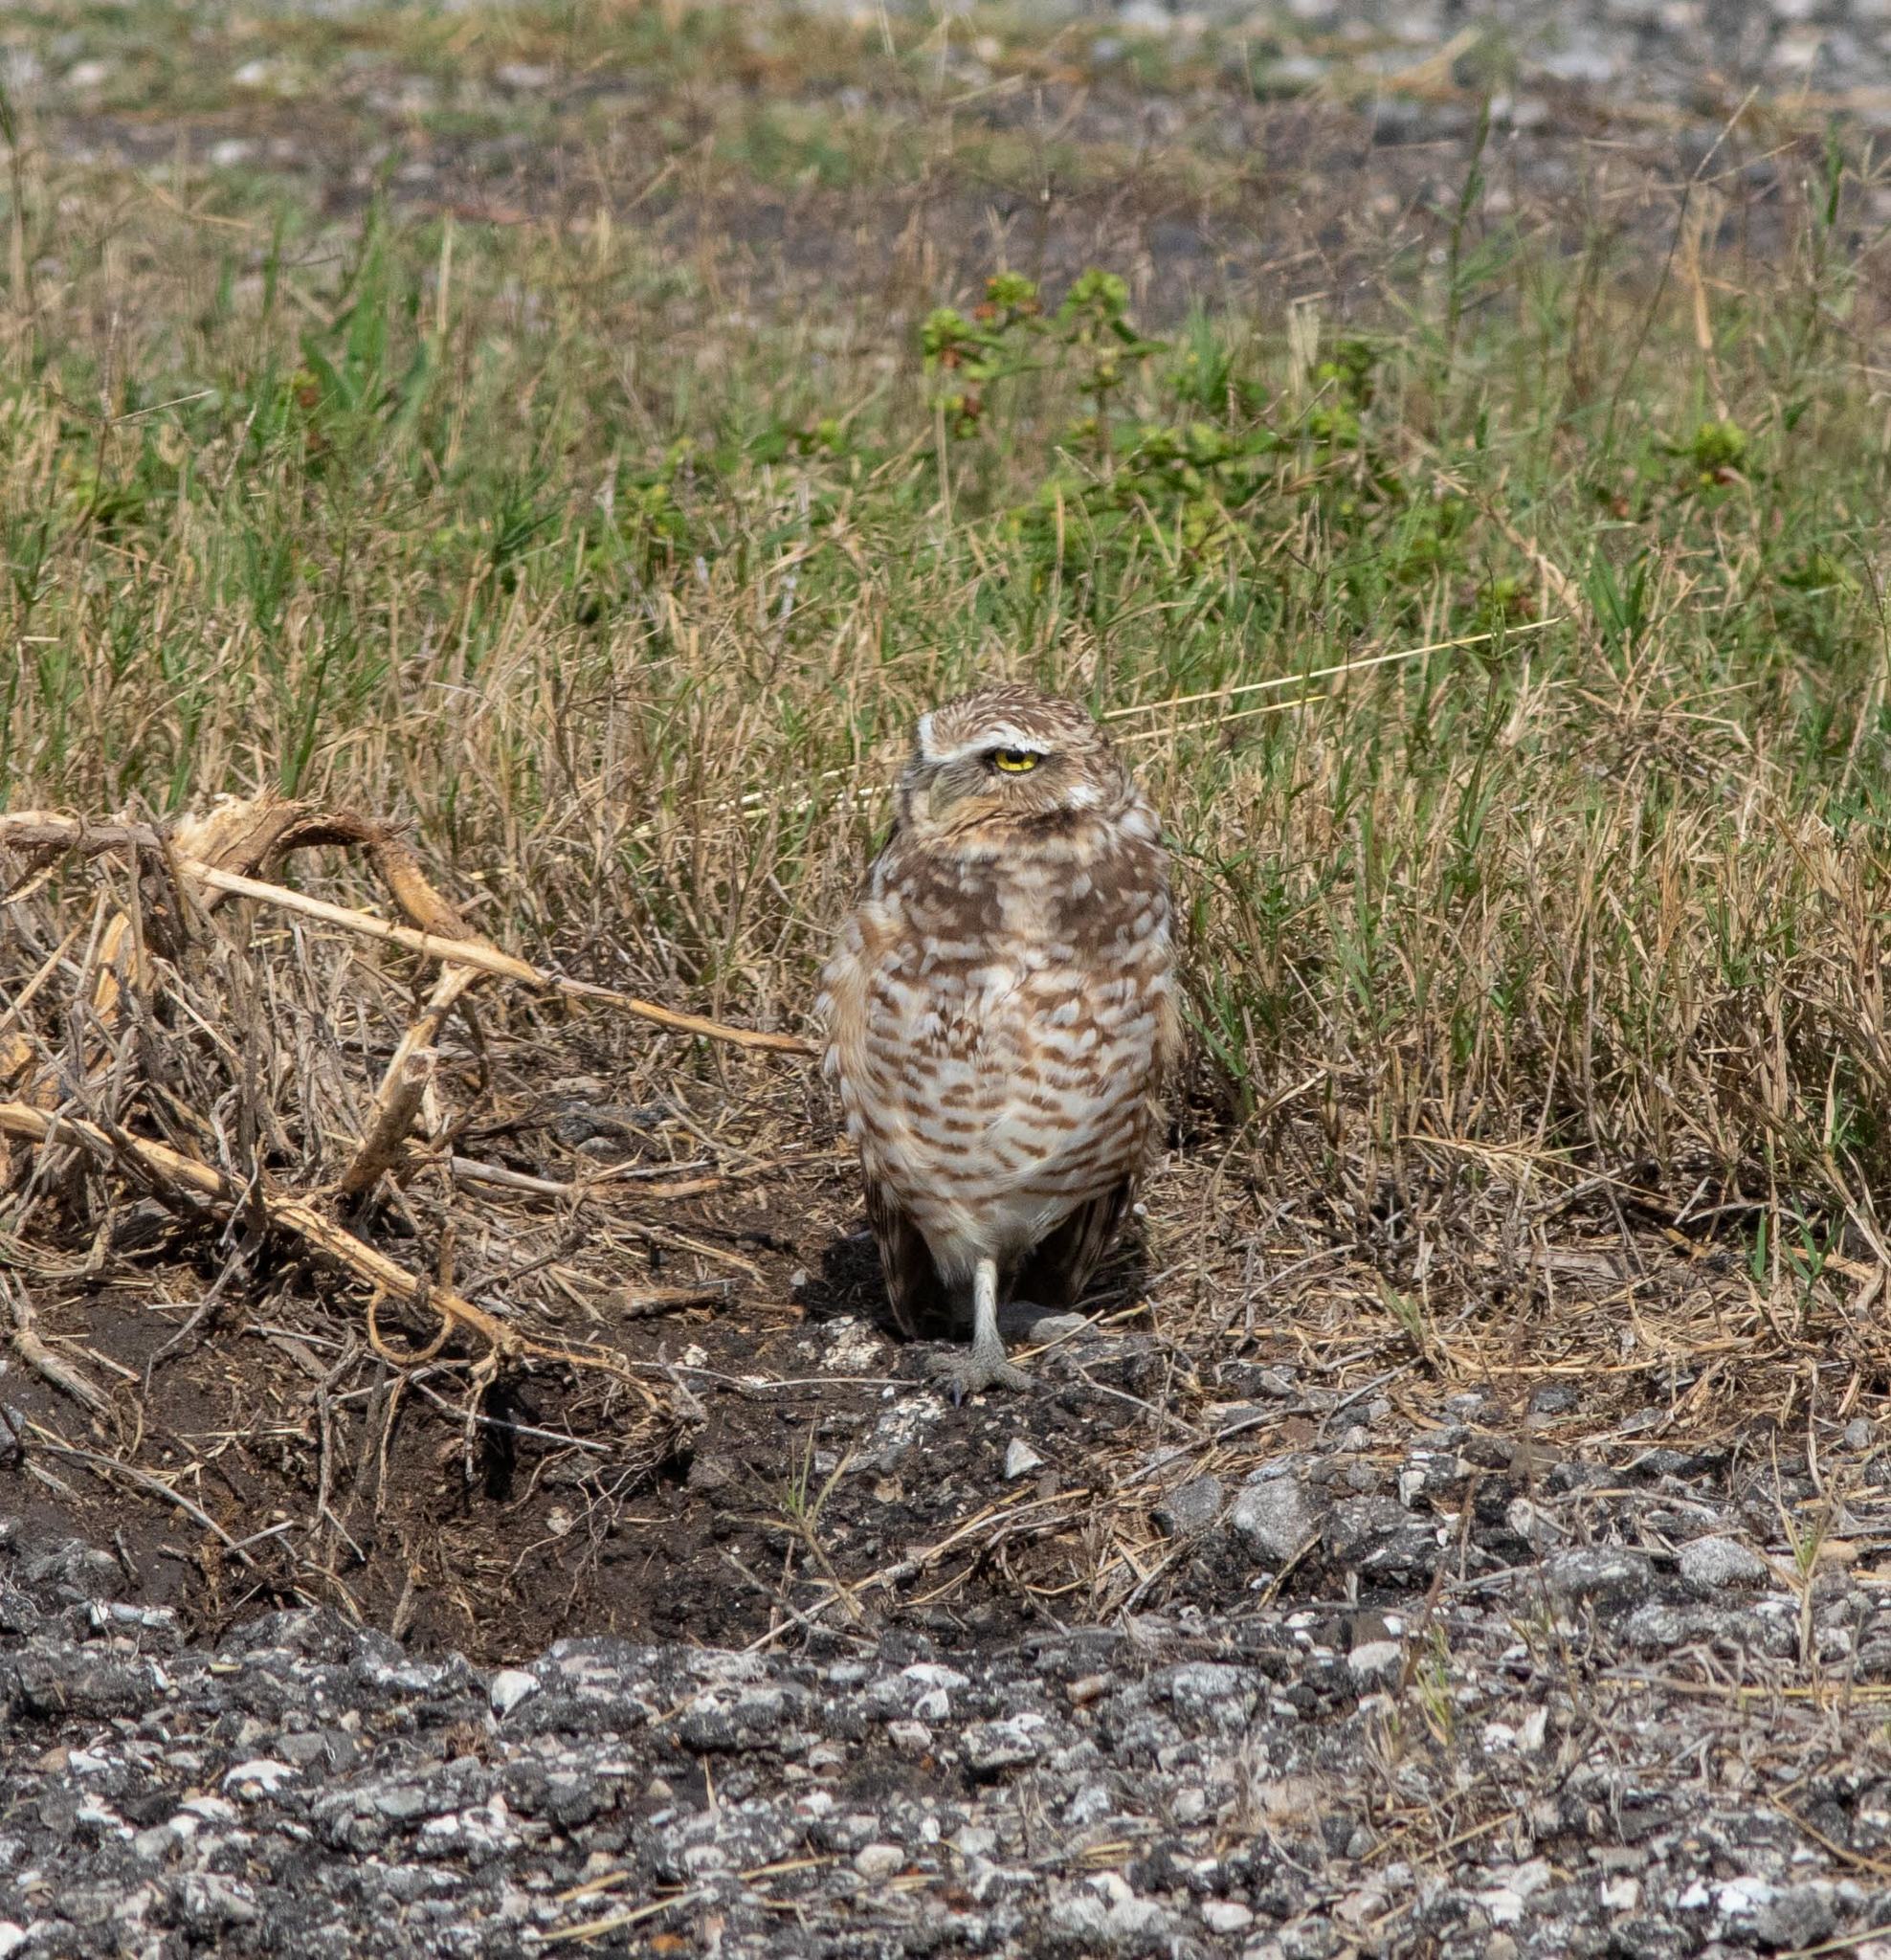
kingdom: Animalia
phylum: Chordata
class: Aves
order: Strigiformes
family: Strigidae
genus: Athene
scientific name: Athene cunicularia
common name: Burrowing owl
